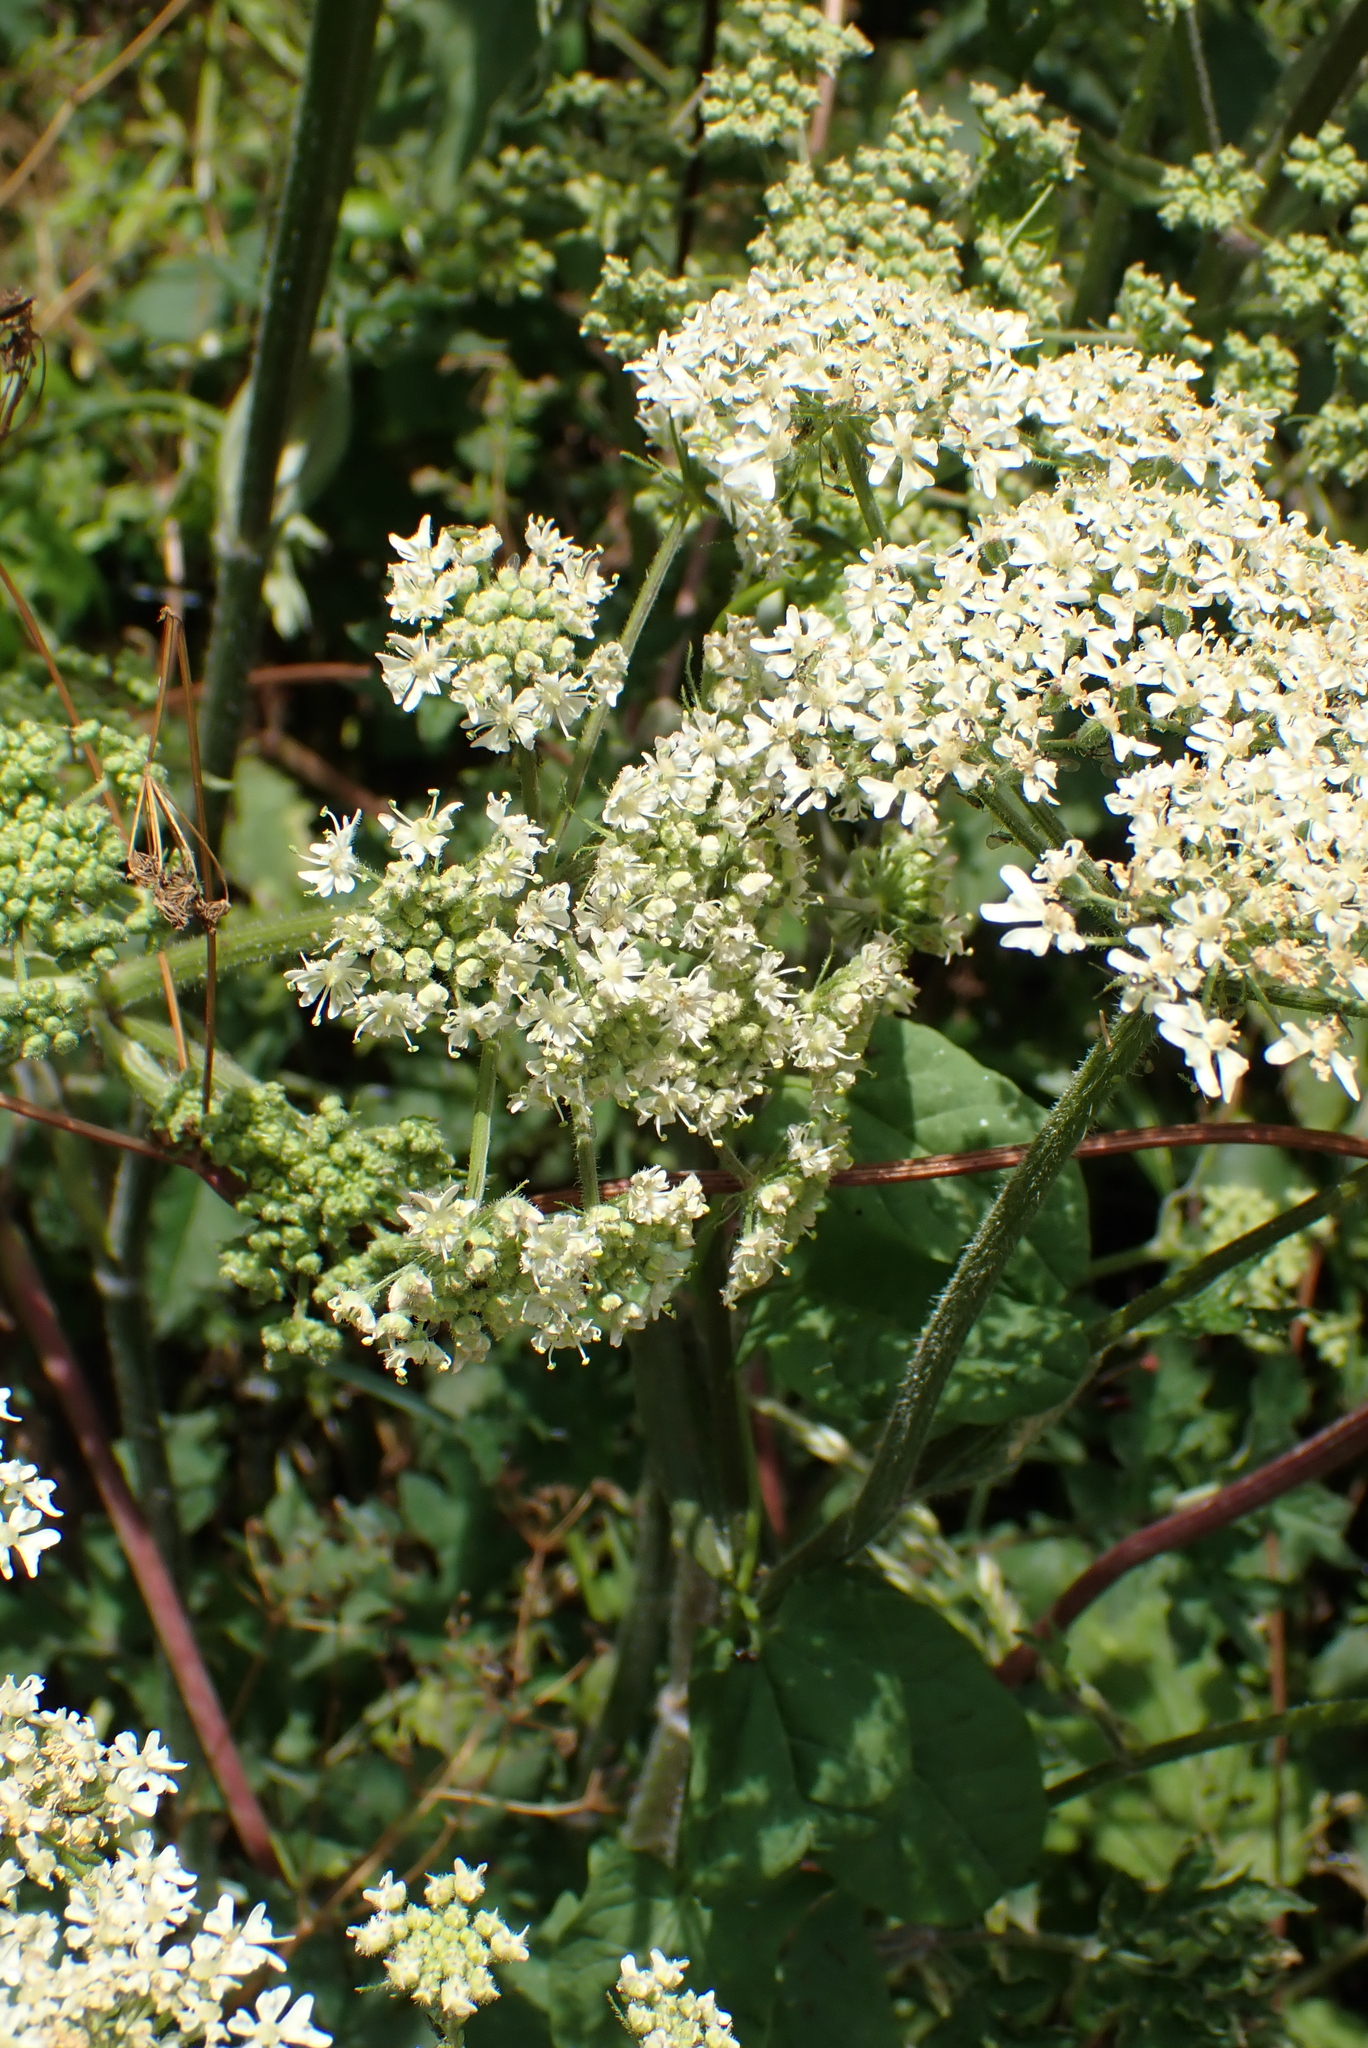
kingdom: Plantae
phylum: Tracheophyta
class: Magnoliopsida
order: Apiales
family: Apiaceae
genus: Heracleum
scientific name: Heracleum sphondylium
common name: Hogweed
